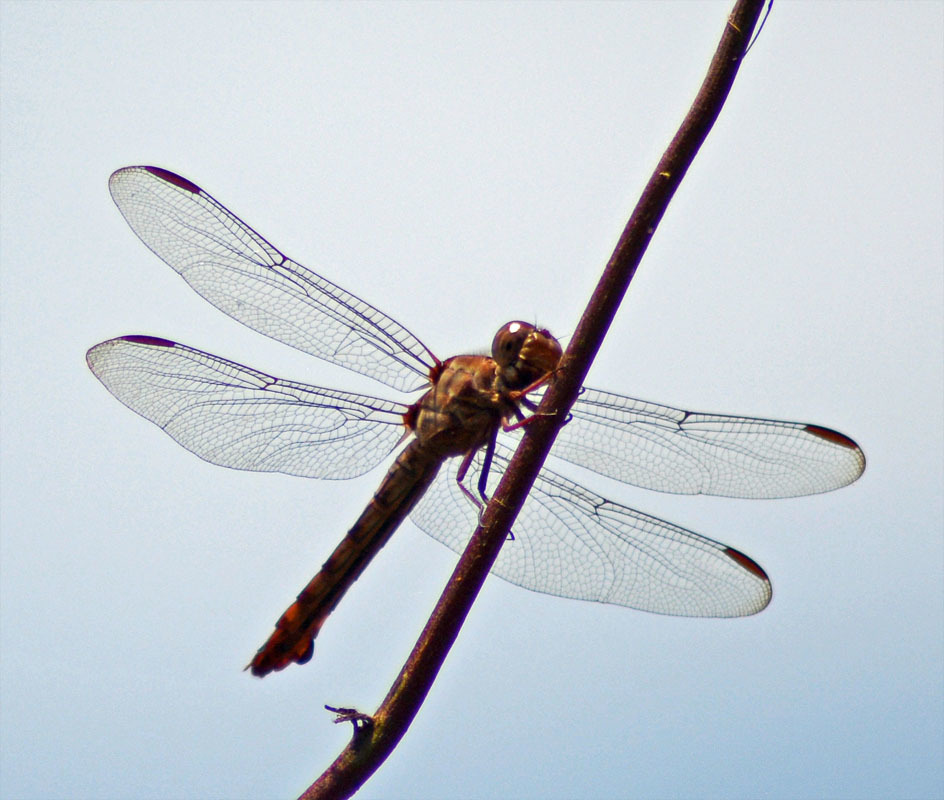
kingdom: Animalia
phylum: Arthropoda
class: Insecta
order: Odonata
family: Libellulidae
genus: Orthemis
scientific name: Orthemis ferruginea
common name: Roseate skimmer
